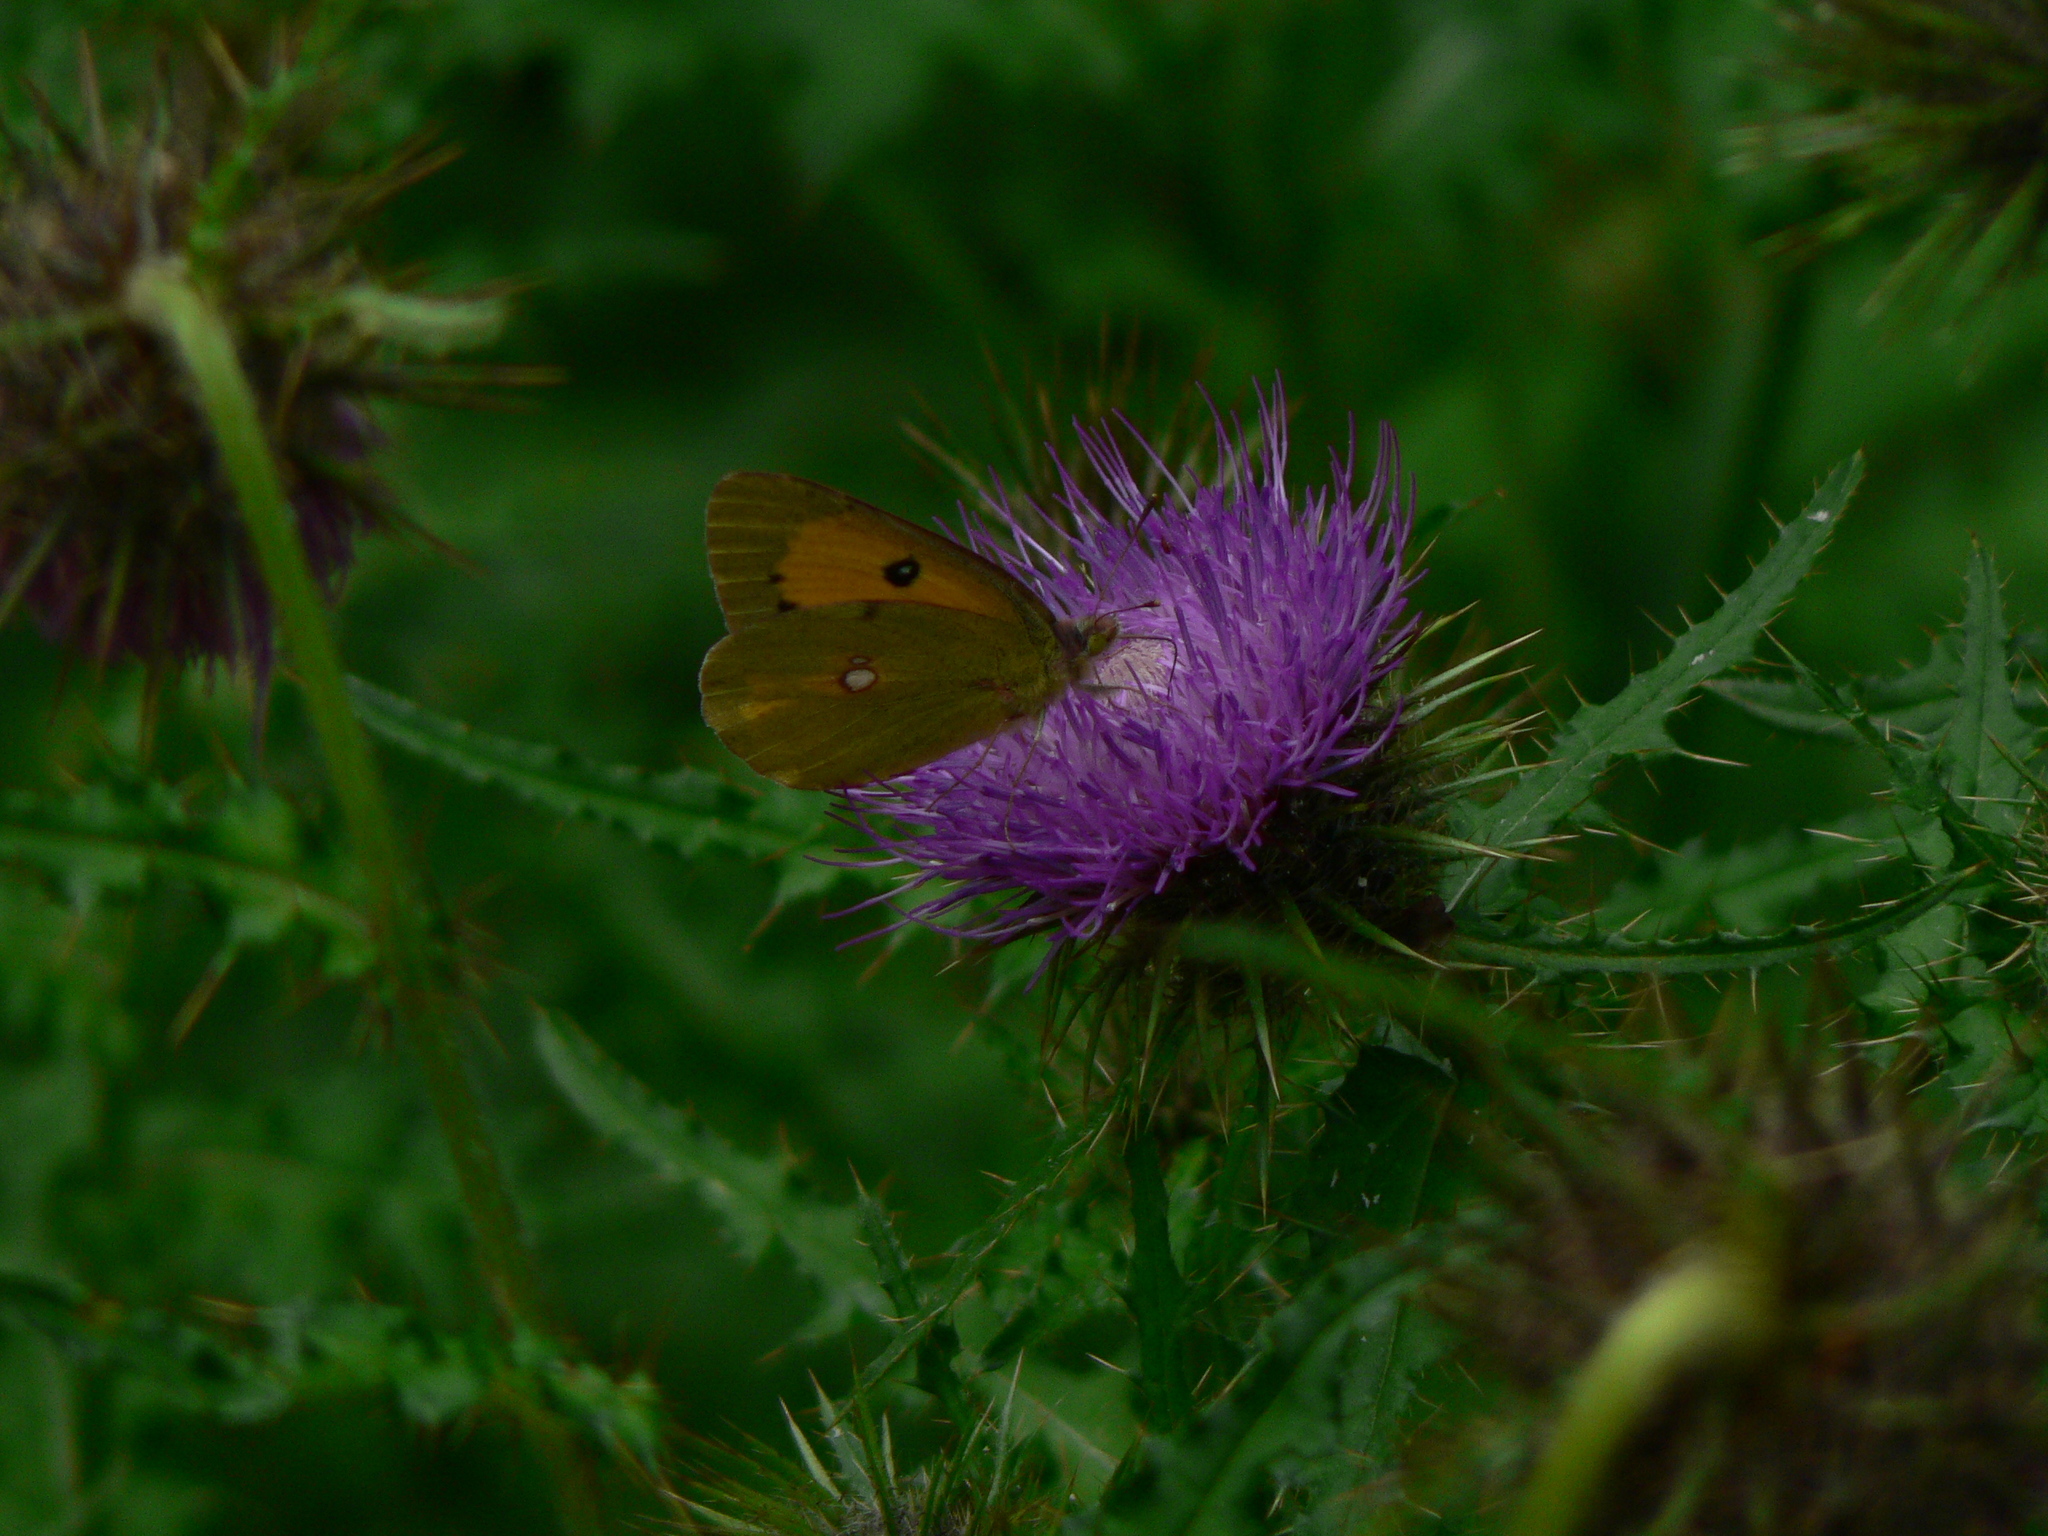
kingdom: Animalia
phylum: Arthropoda
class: Insecta
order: Lepidoptera
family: Pieridae
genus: Colias
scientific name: Colias fieldii
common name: Dark clouded yellow
